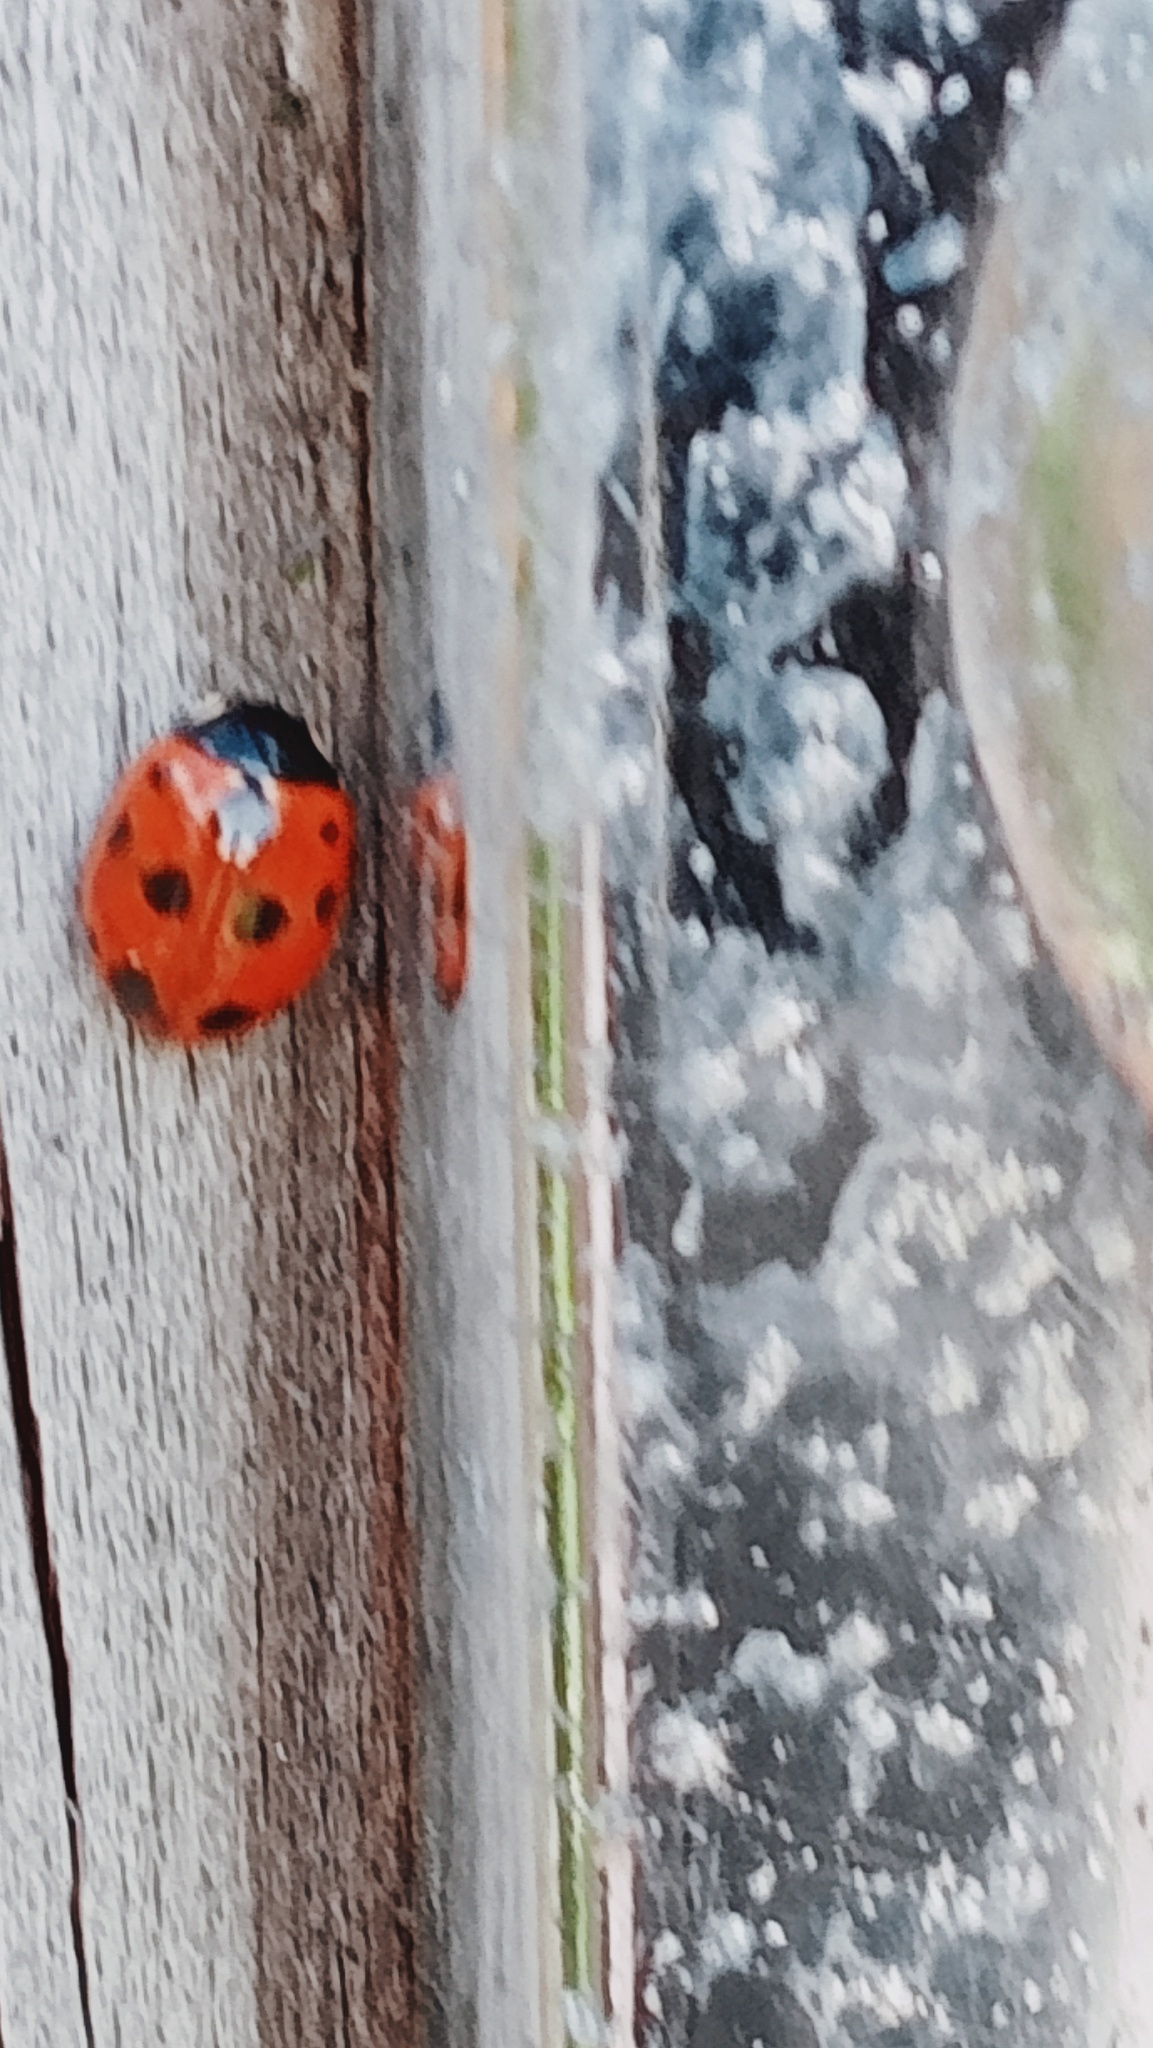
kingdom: Animalia
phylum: Arthropoda
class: Insecta
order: Coleoptera
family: Coccinellidae
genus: Coccinella
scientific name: Coccinella undecimpunctata
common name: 11-spot ladybird
